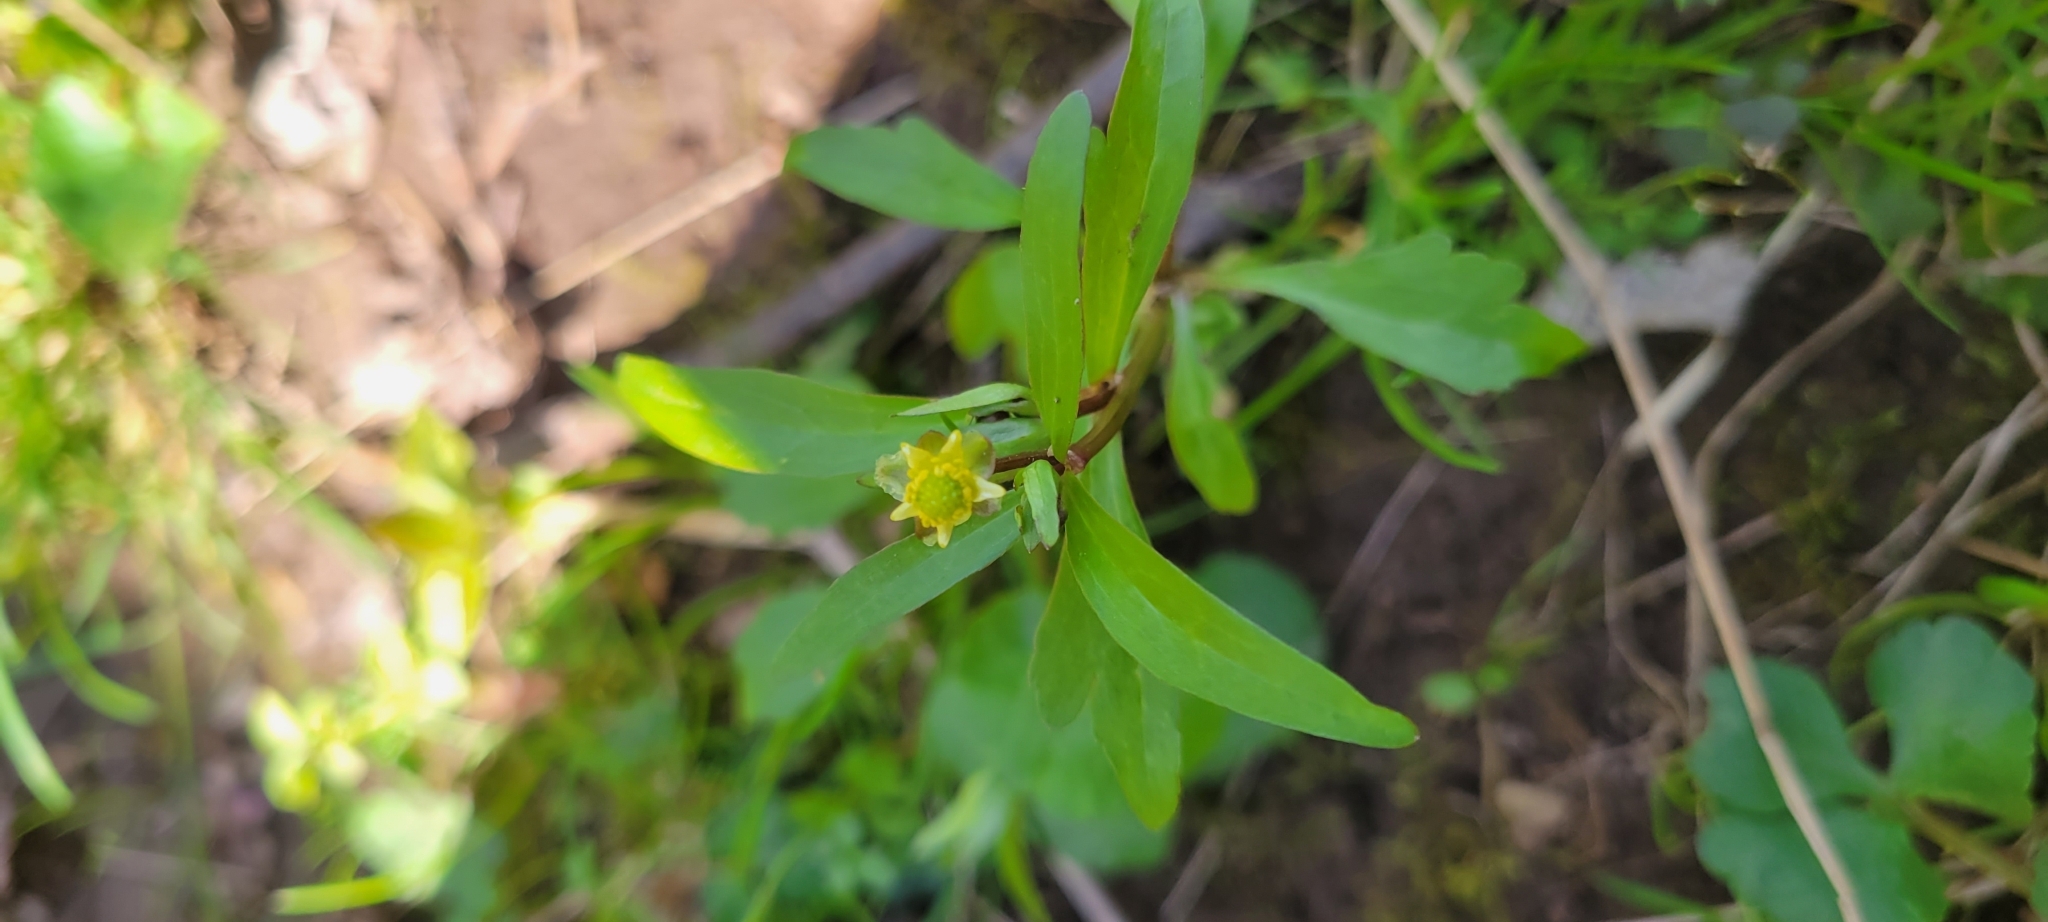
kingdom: Plantae
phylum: Tracheophyta
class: Magnoliopsida
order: Ranunculales
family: Ranunculaceae
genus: Ranunculus
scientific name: Ranunculus micranthus
